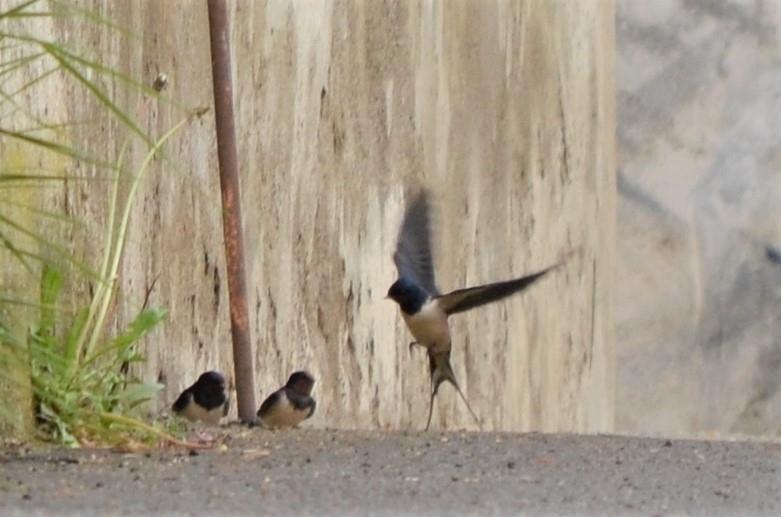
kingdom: Animalia
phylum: Chordata
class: Aves
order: Passeriformes
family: Hirundinidae
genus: Hirundo
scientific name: Hirundo rustica
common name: Barn swallow
